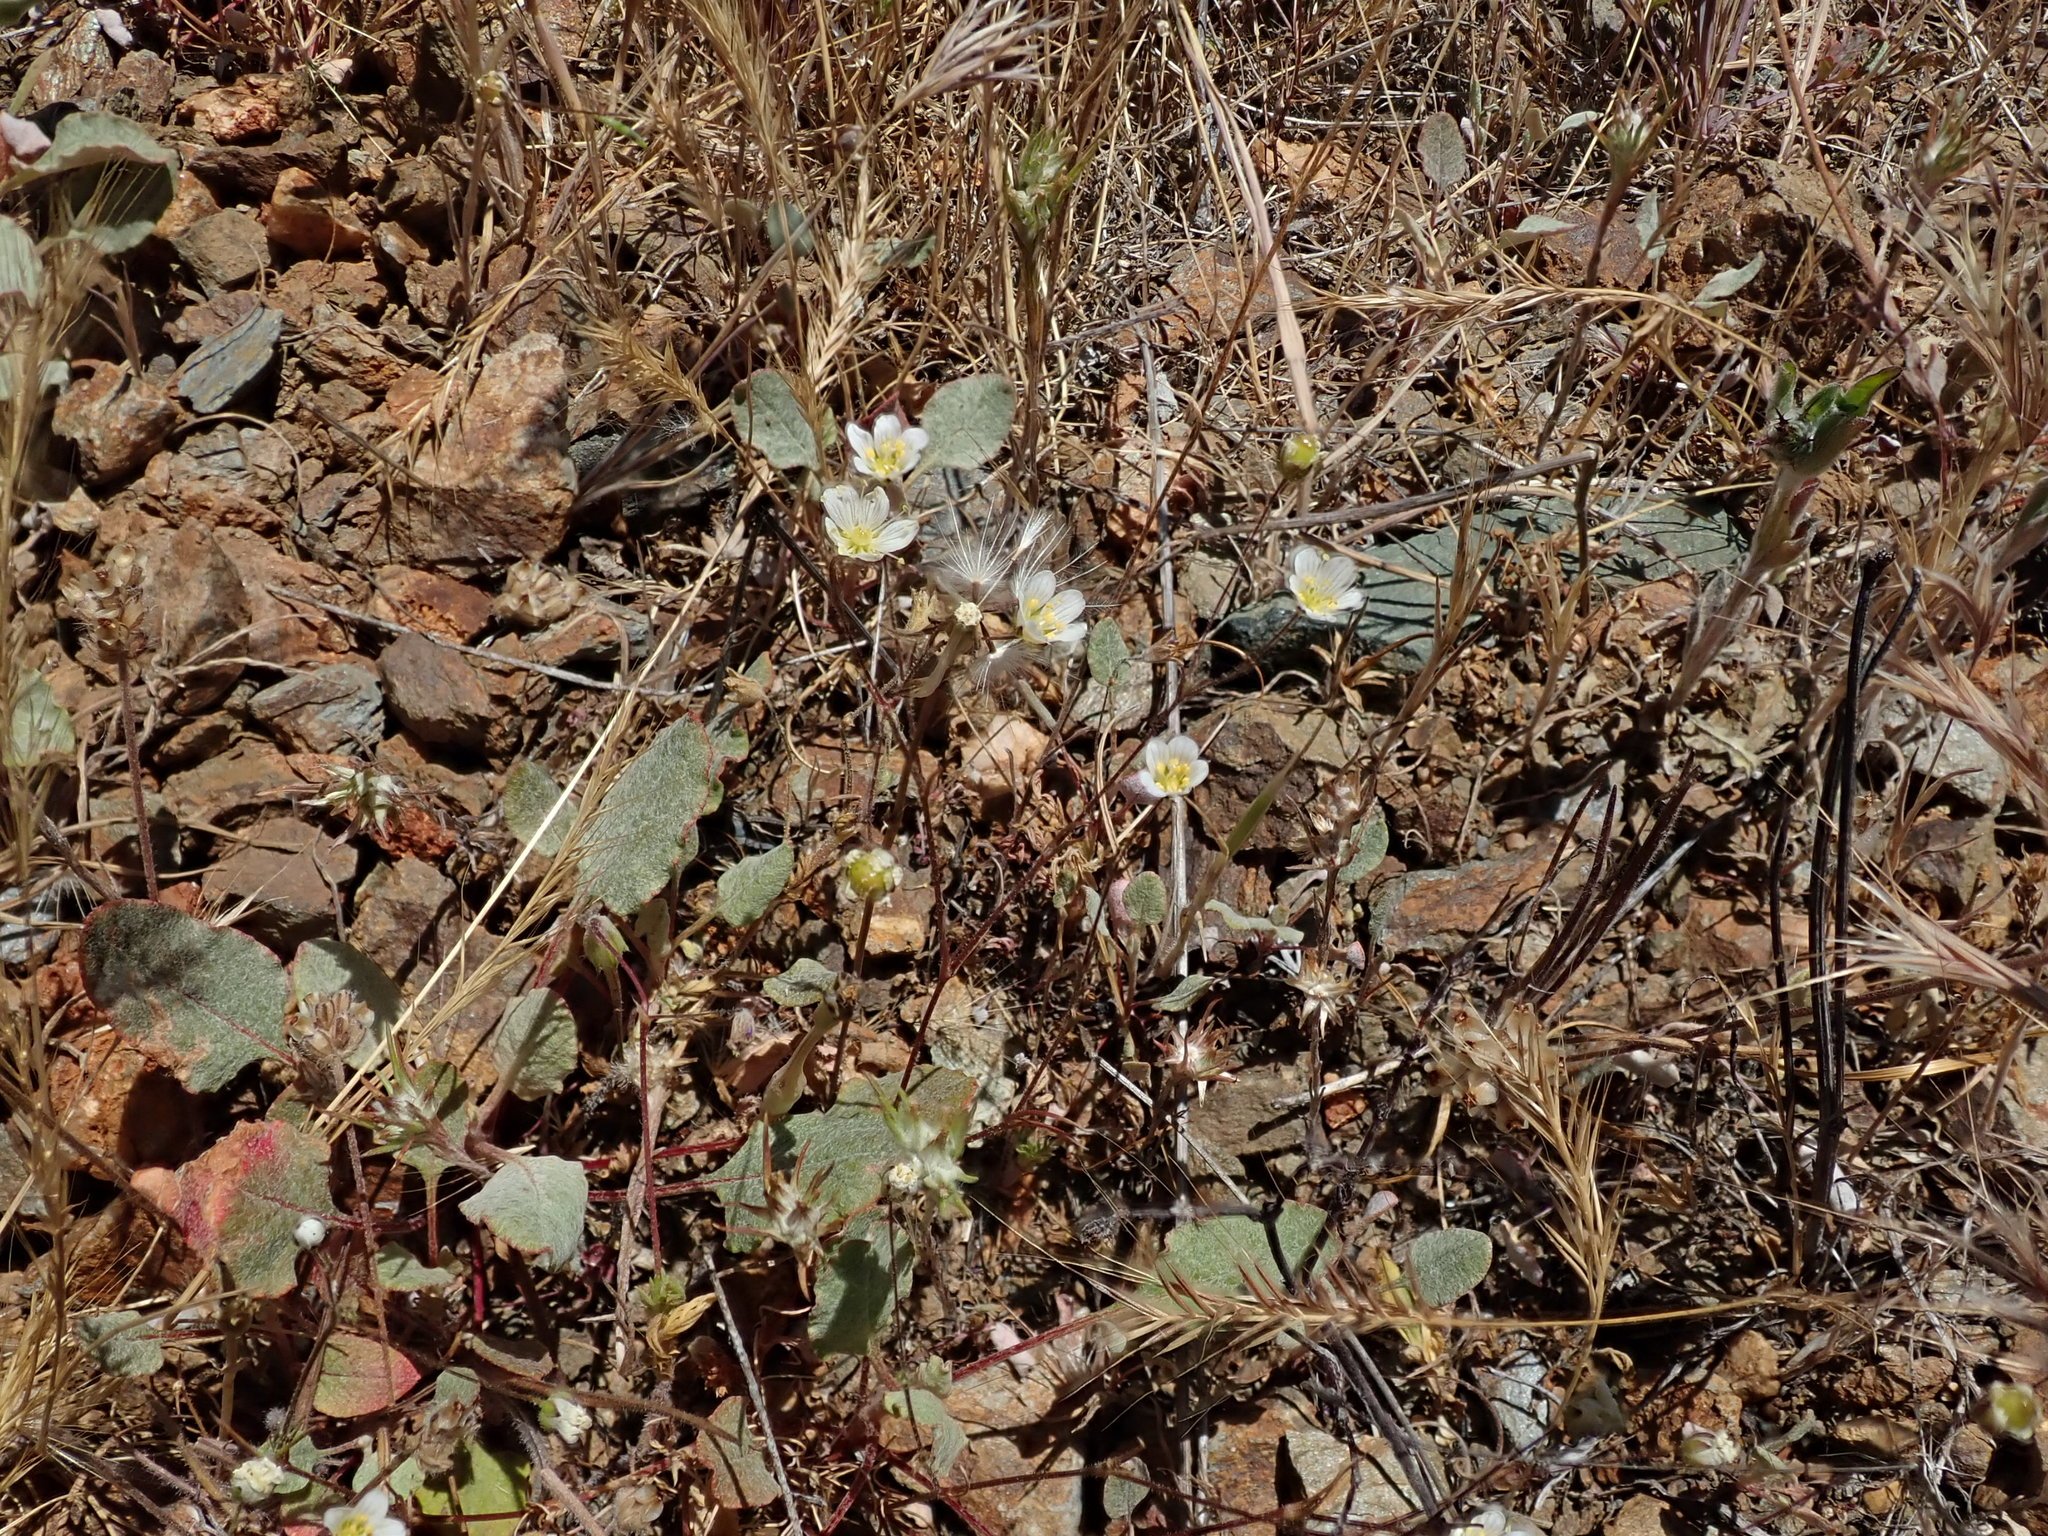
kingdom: Plantae
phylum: Tracheophyta
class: Magnoliopsida
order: Caryophyllales
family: Caryophyllaceae
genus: Sabulina
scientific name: Sabulina douglasii
